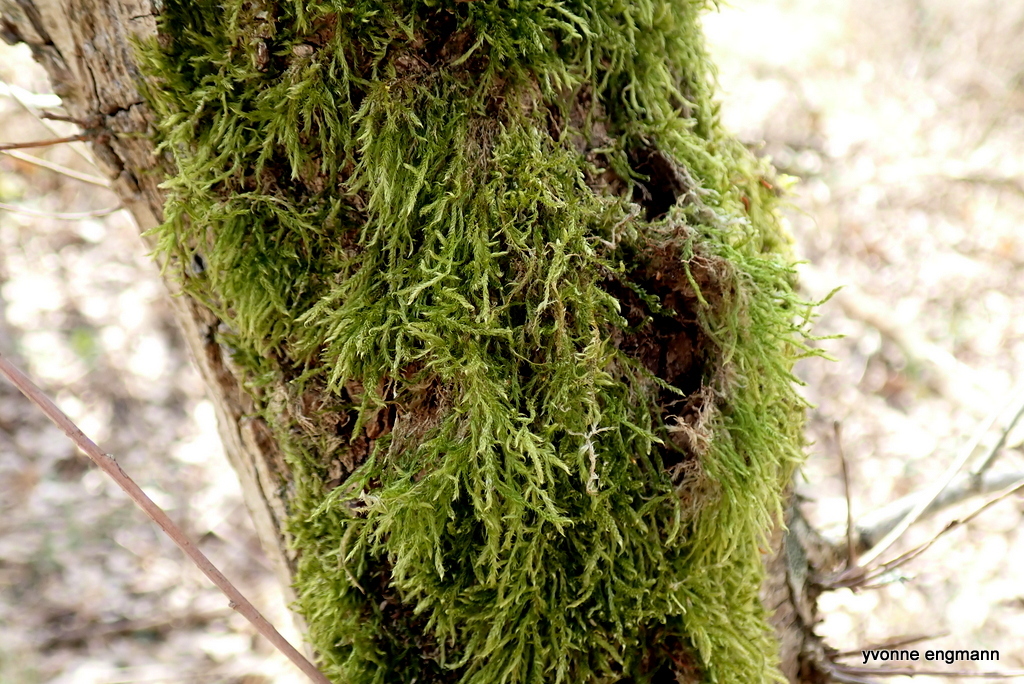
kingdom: Plantae
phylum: Bryophyta
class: Bryopsida
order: Hypnales
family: Hypnaceae
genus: Hypnum
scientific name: Hypnum cupressiforme
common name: Cypress-leaved plait-moss
